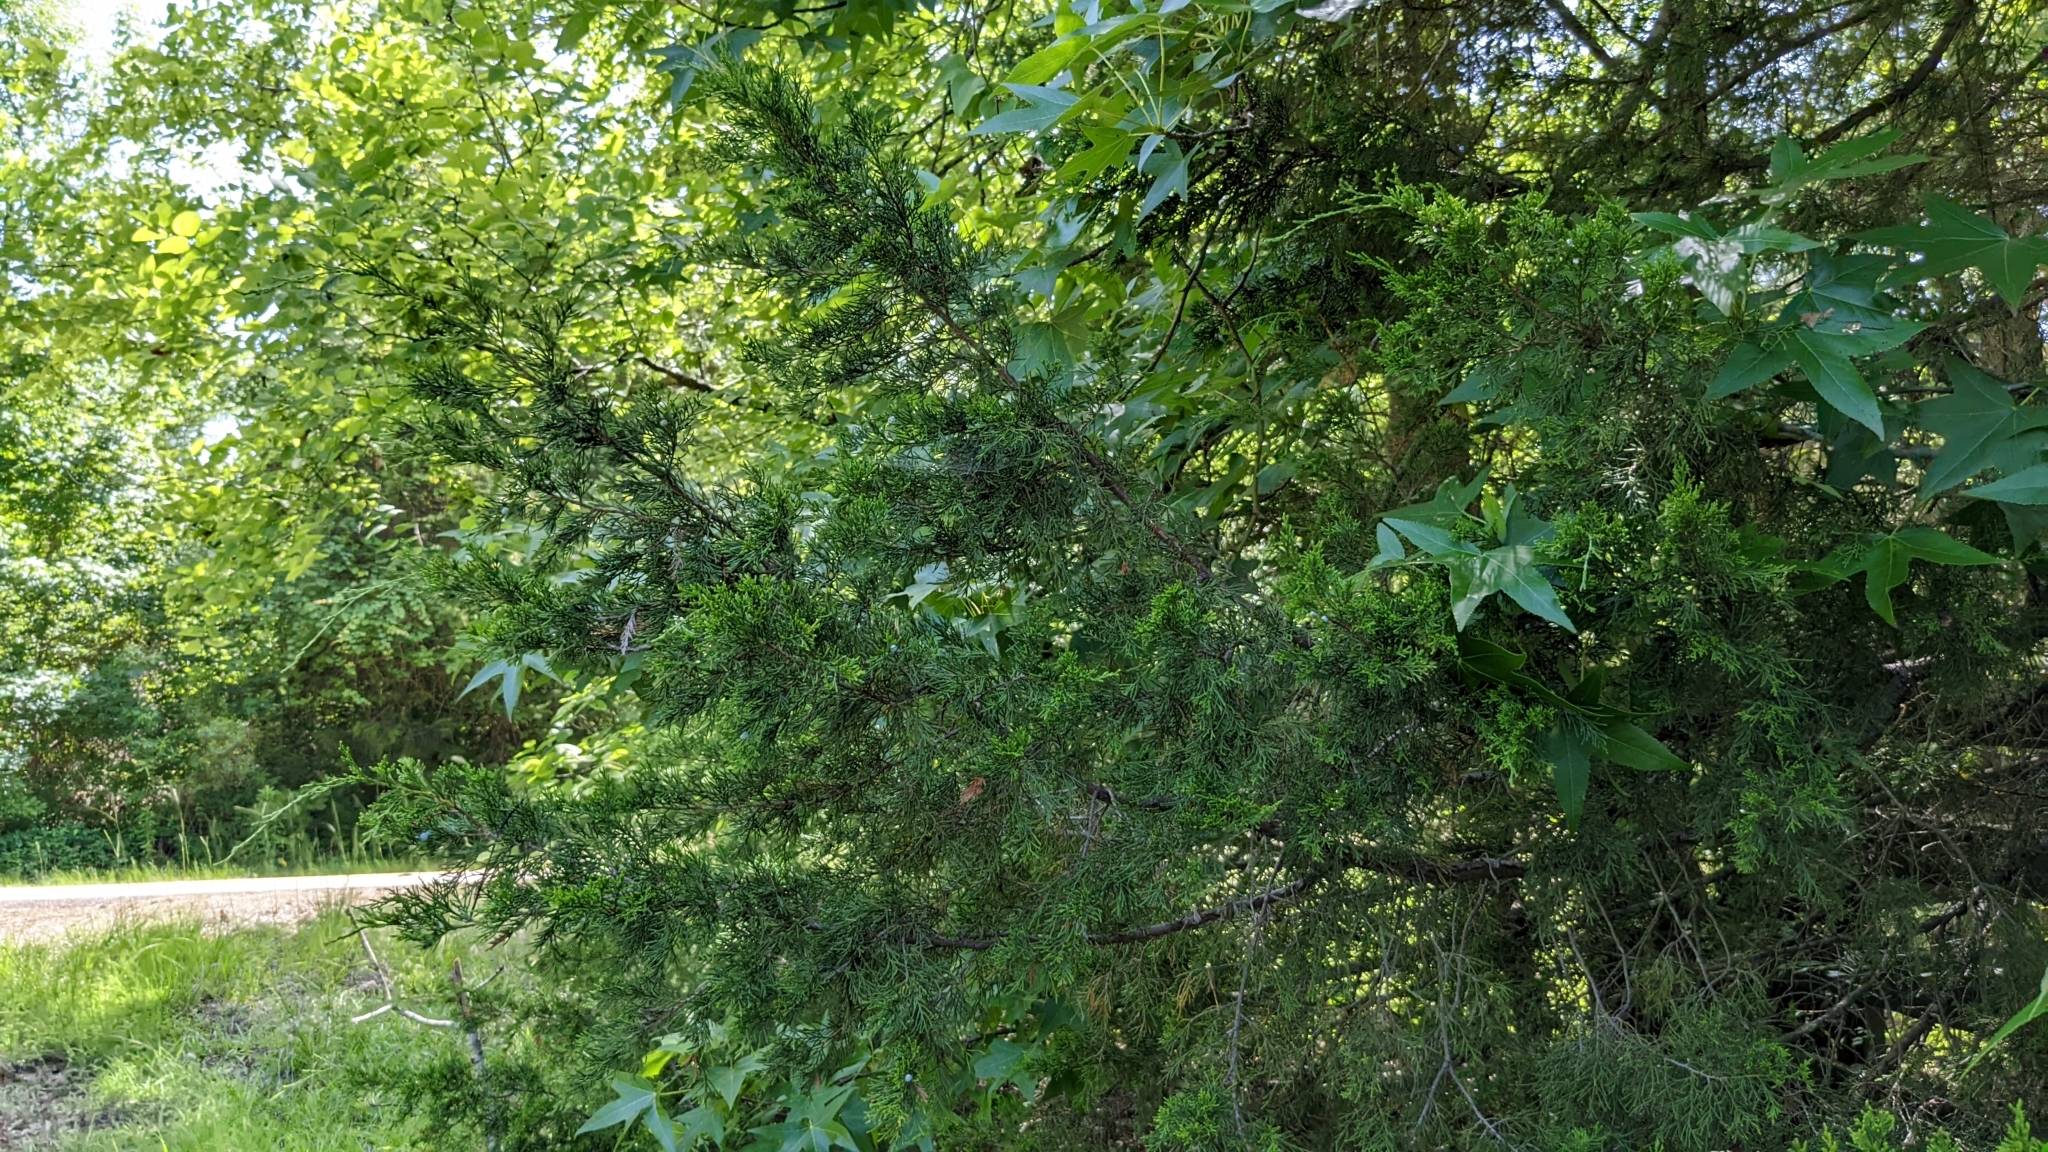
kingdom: Plantae
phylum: Tracheophyta
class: Pinopsida
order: Pinales
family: Cupressaceae
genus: Juniperus
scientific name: Juniperus virginiana
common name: Red juniper
